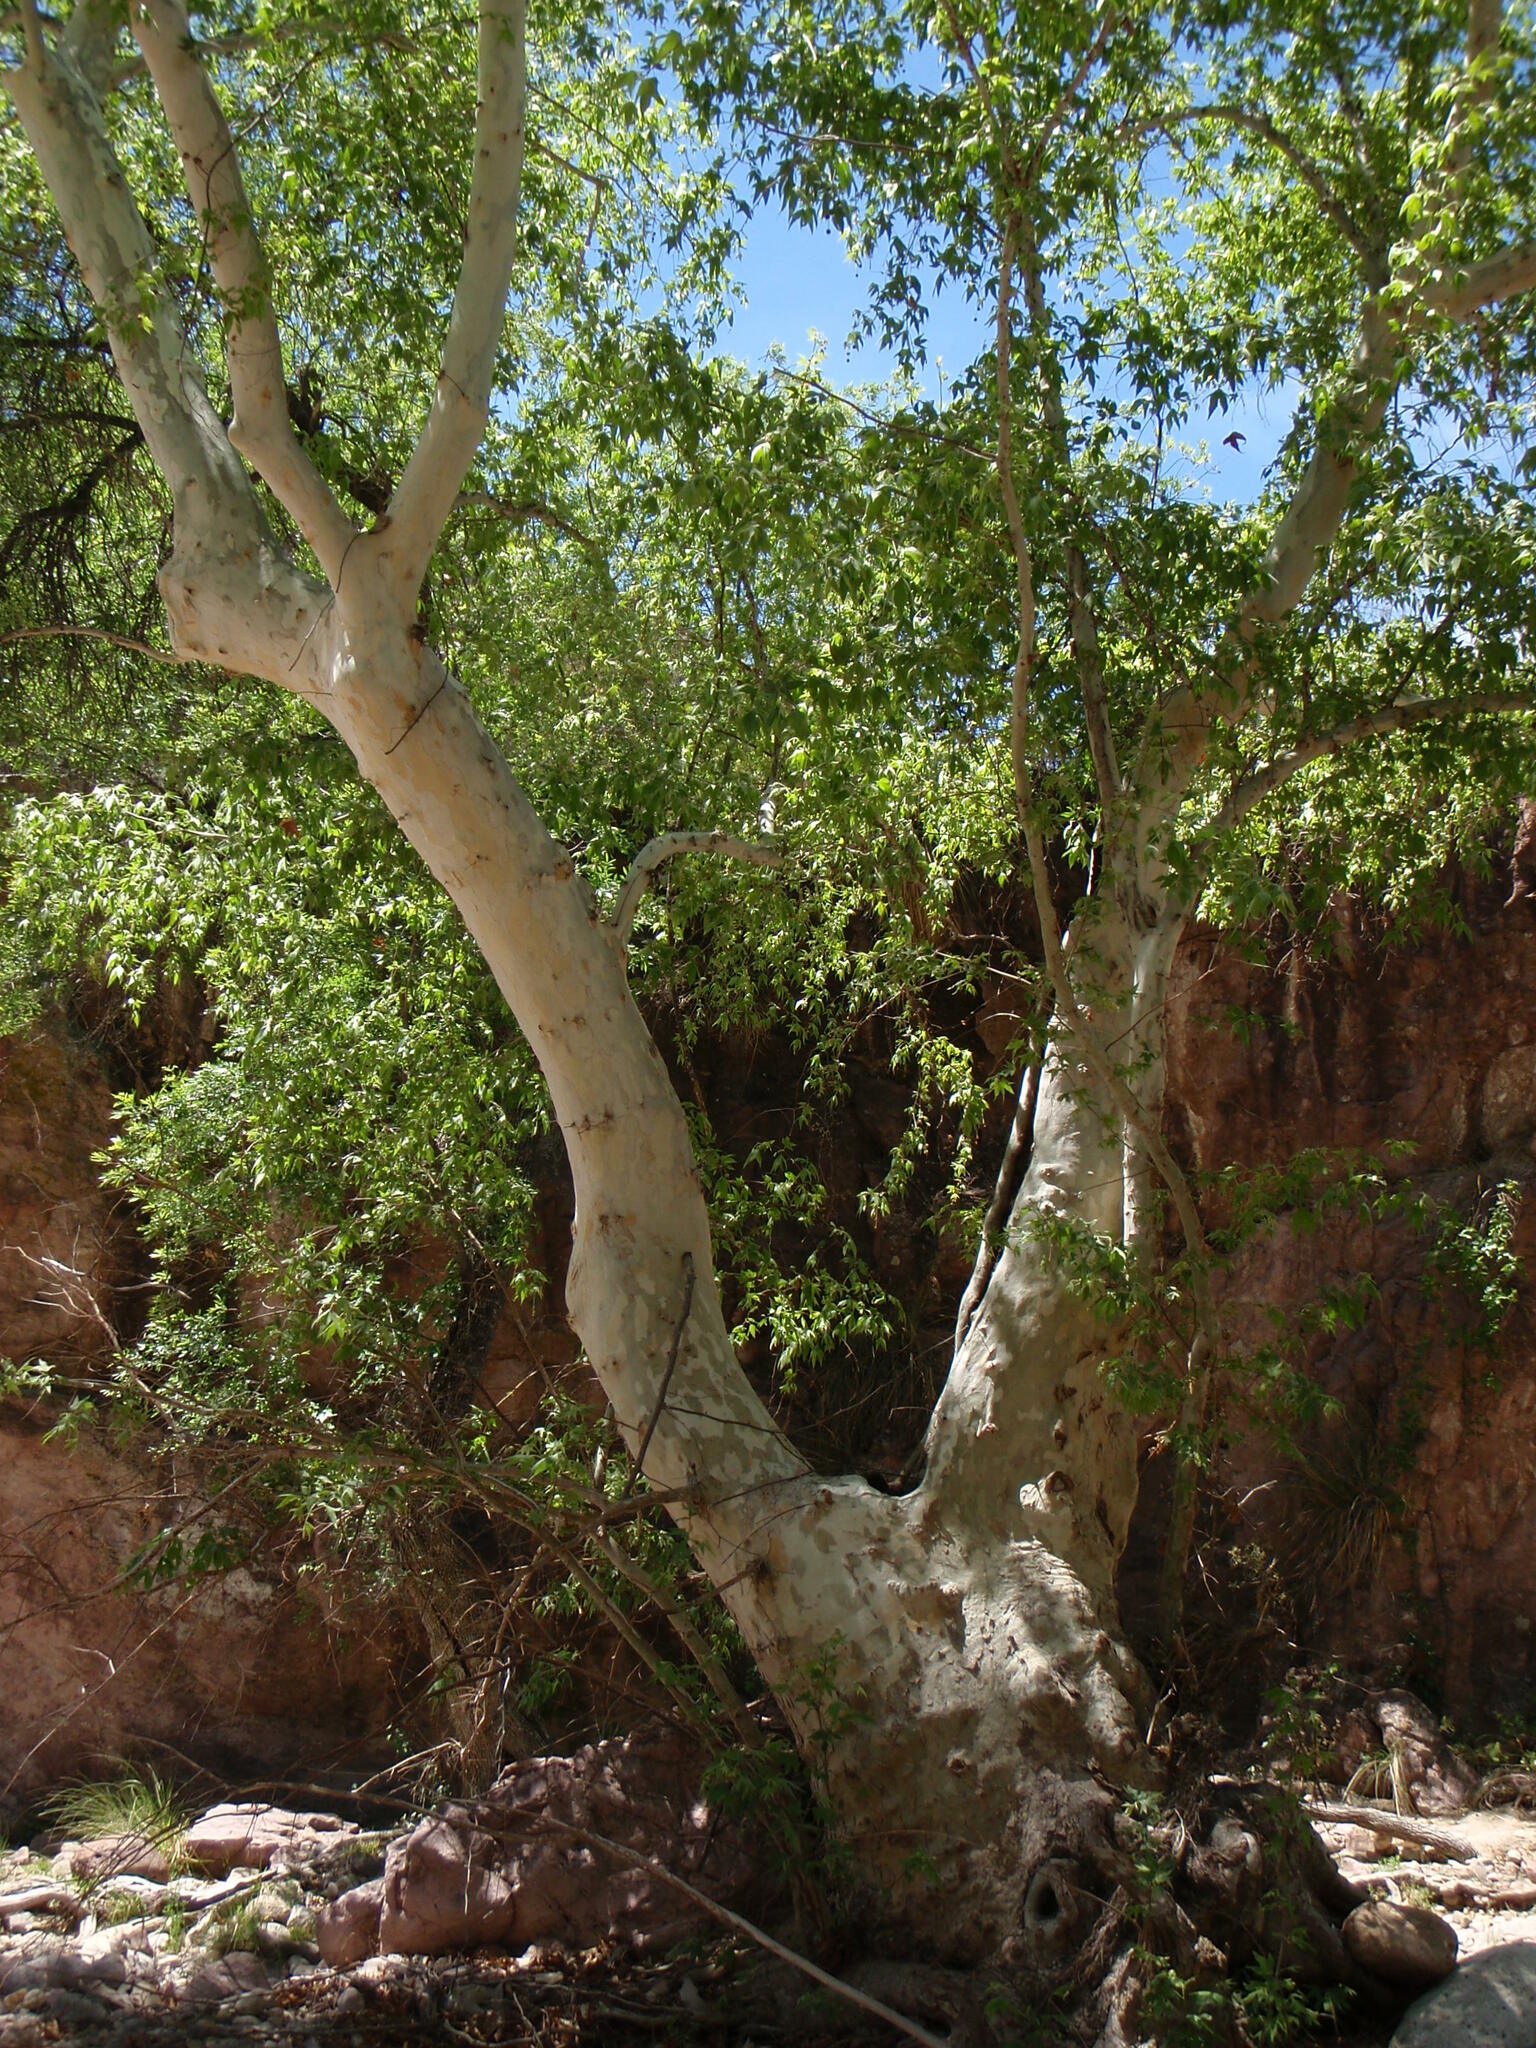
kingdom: Plantae
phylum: Tracheophyta
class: Magnoliopsida
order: Proteales
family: Platanaceae
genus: Platanus
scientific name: Platanus wrightii
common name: Arizona sycamore
